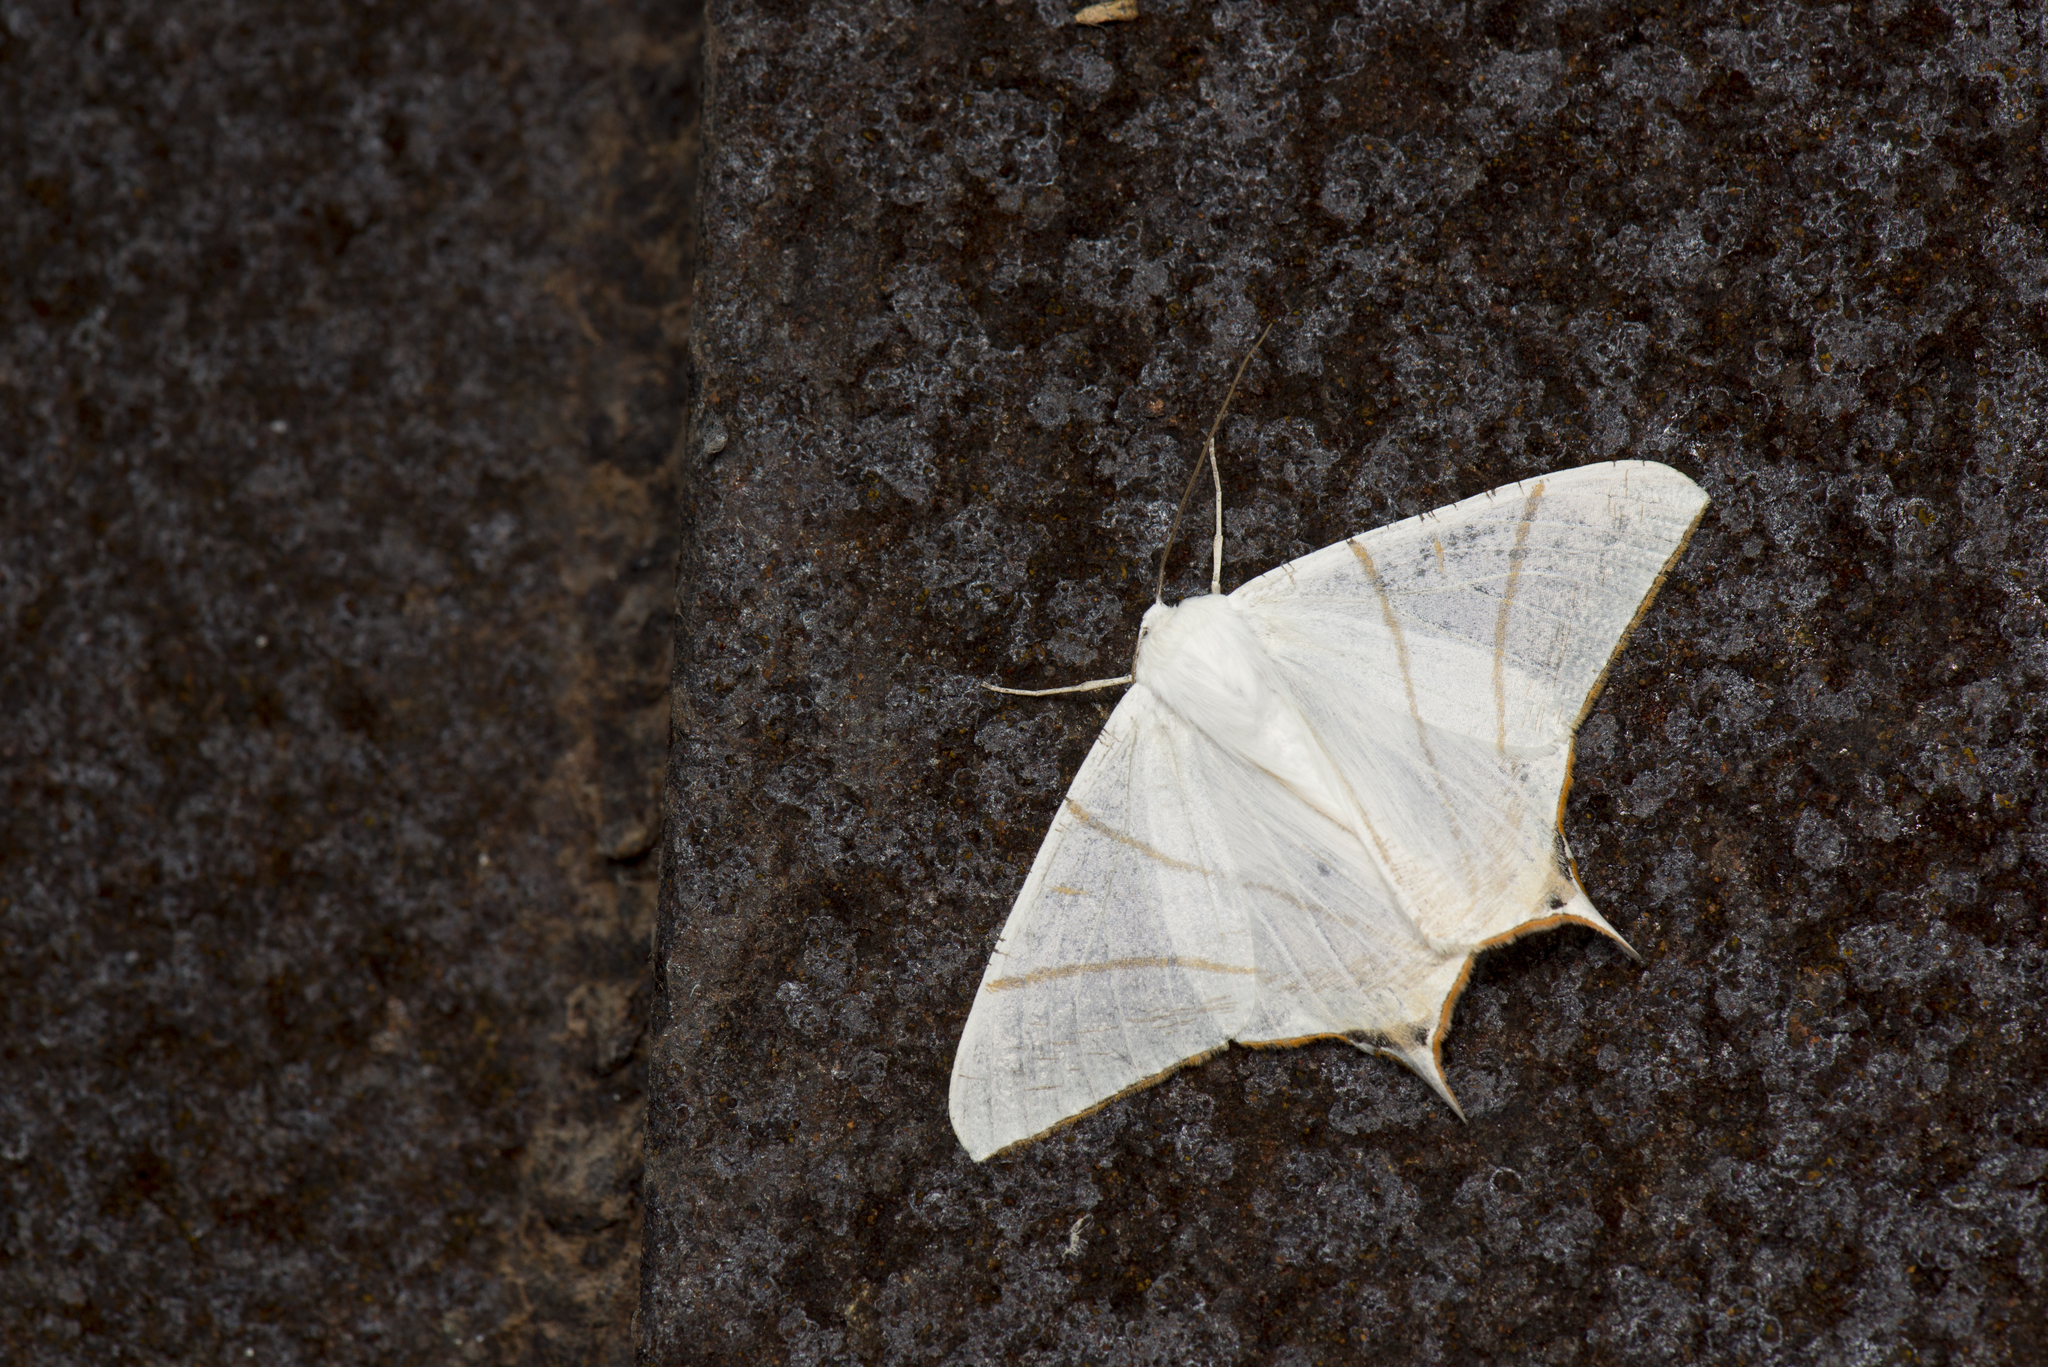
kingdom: Animalia
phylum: Arthropoda
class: Insecta
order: Lepidoptera
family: Geometridae
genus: Ourapteryx
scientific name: Ourapteryx clara
